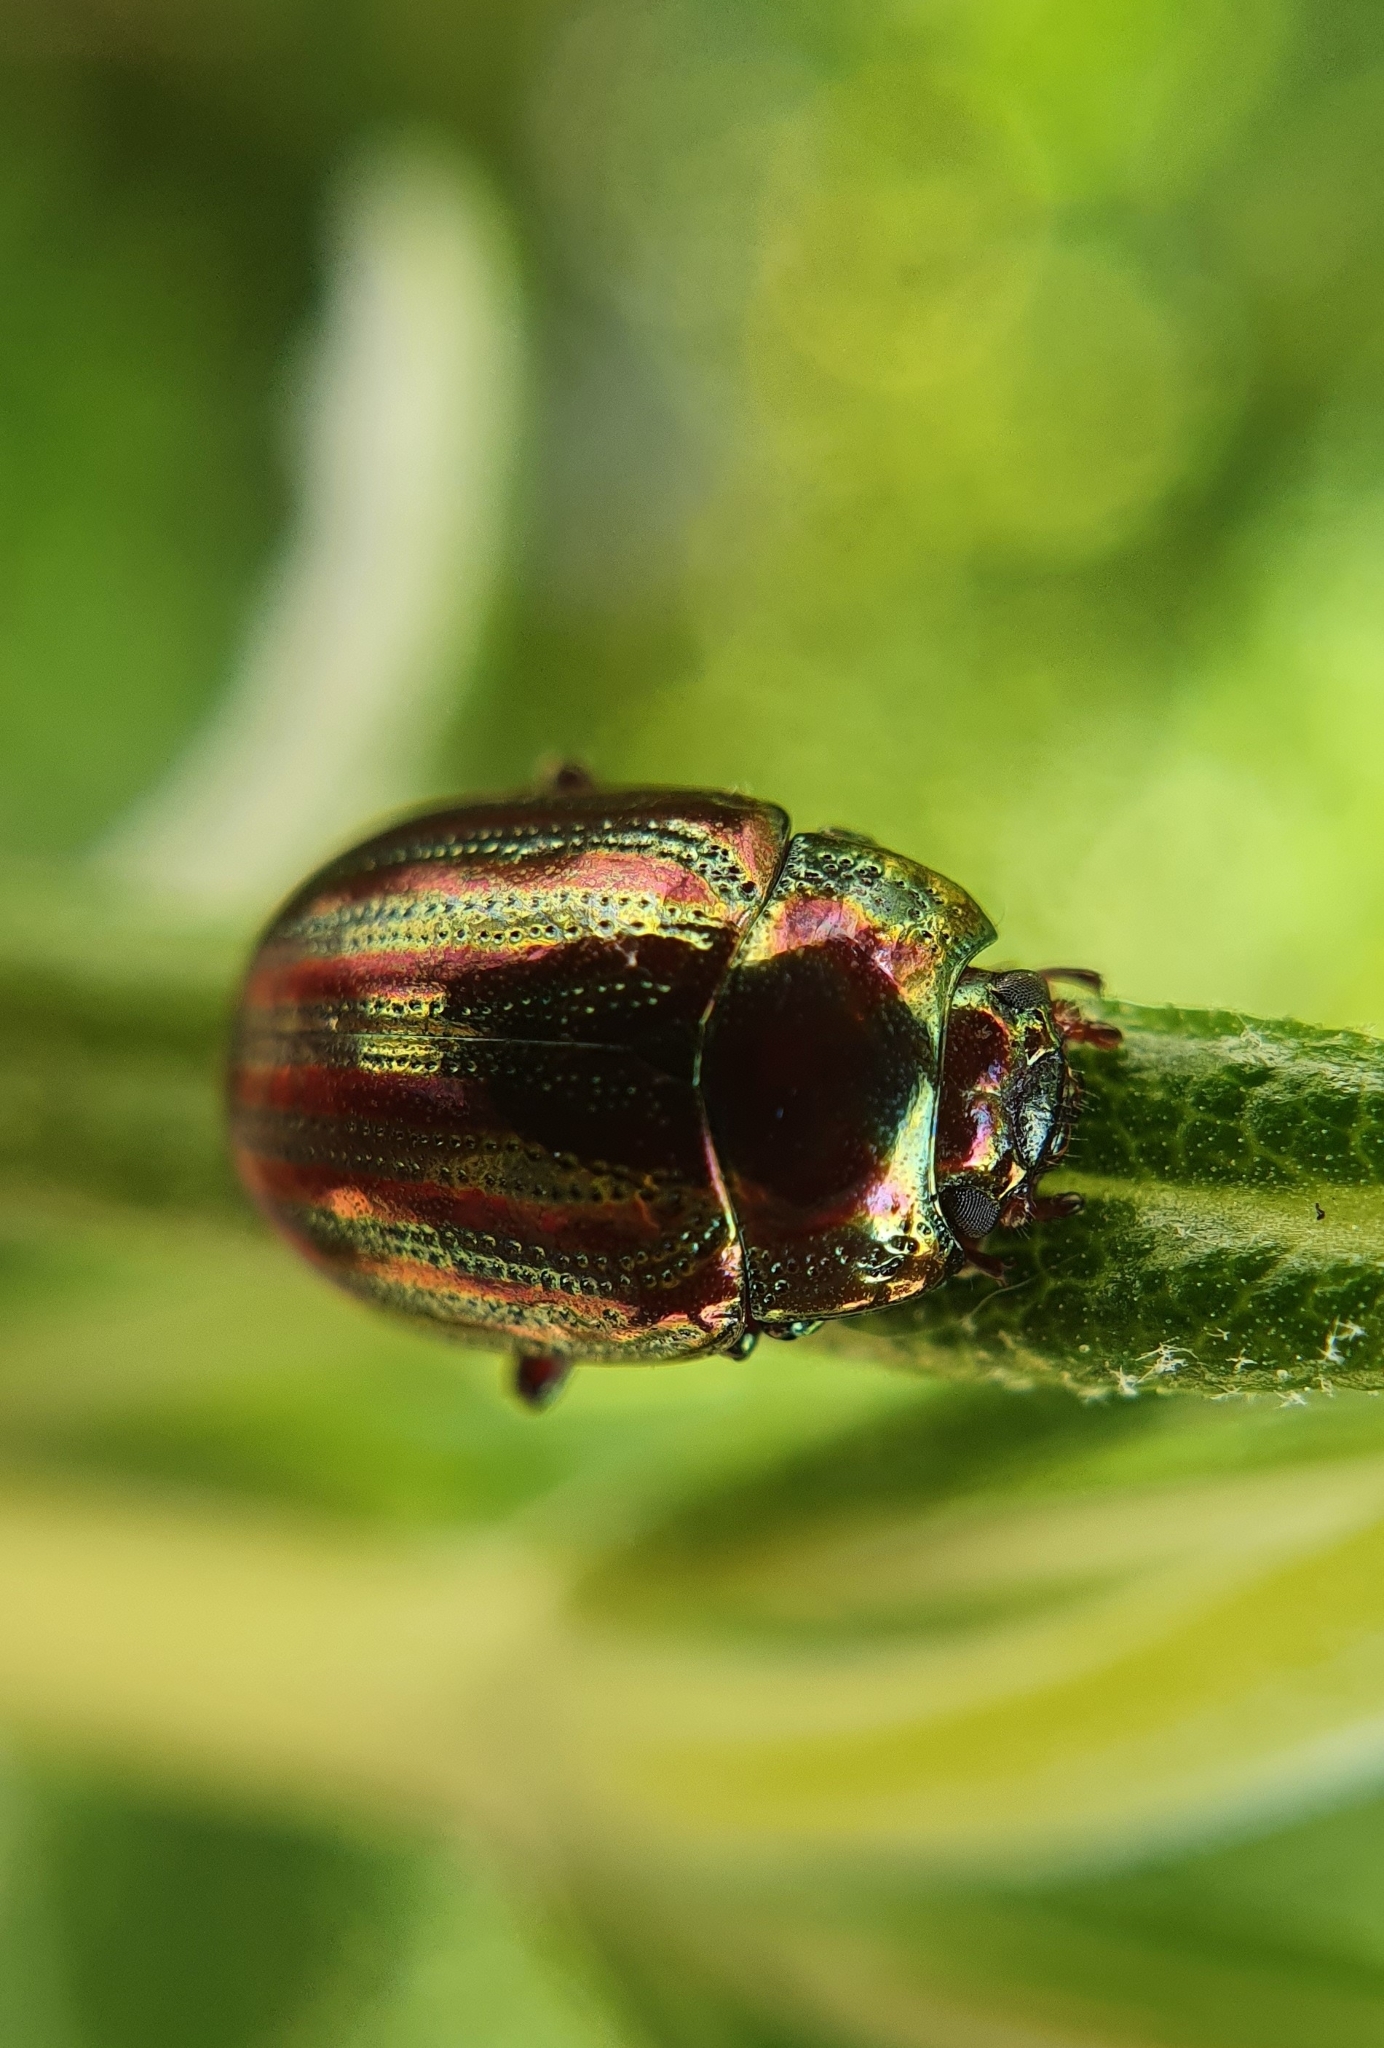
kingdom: Animalia
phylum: Arthropoda
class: Insecta
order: Coleoptera
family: Chrysomelidae
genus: Chrysolina
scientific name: Chrysolina americana
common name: Rosemary beetle
